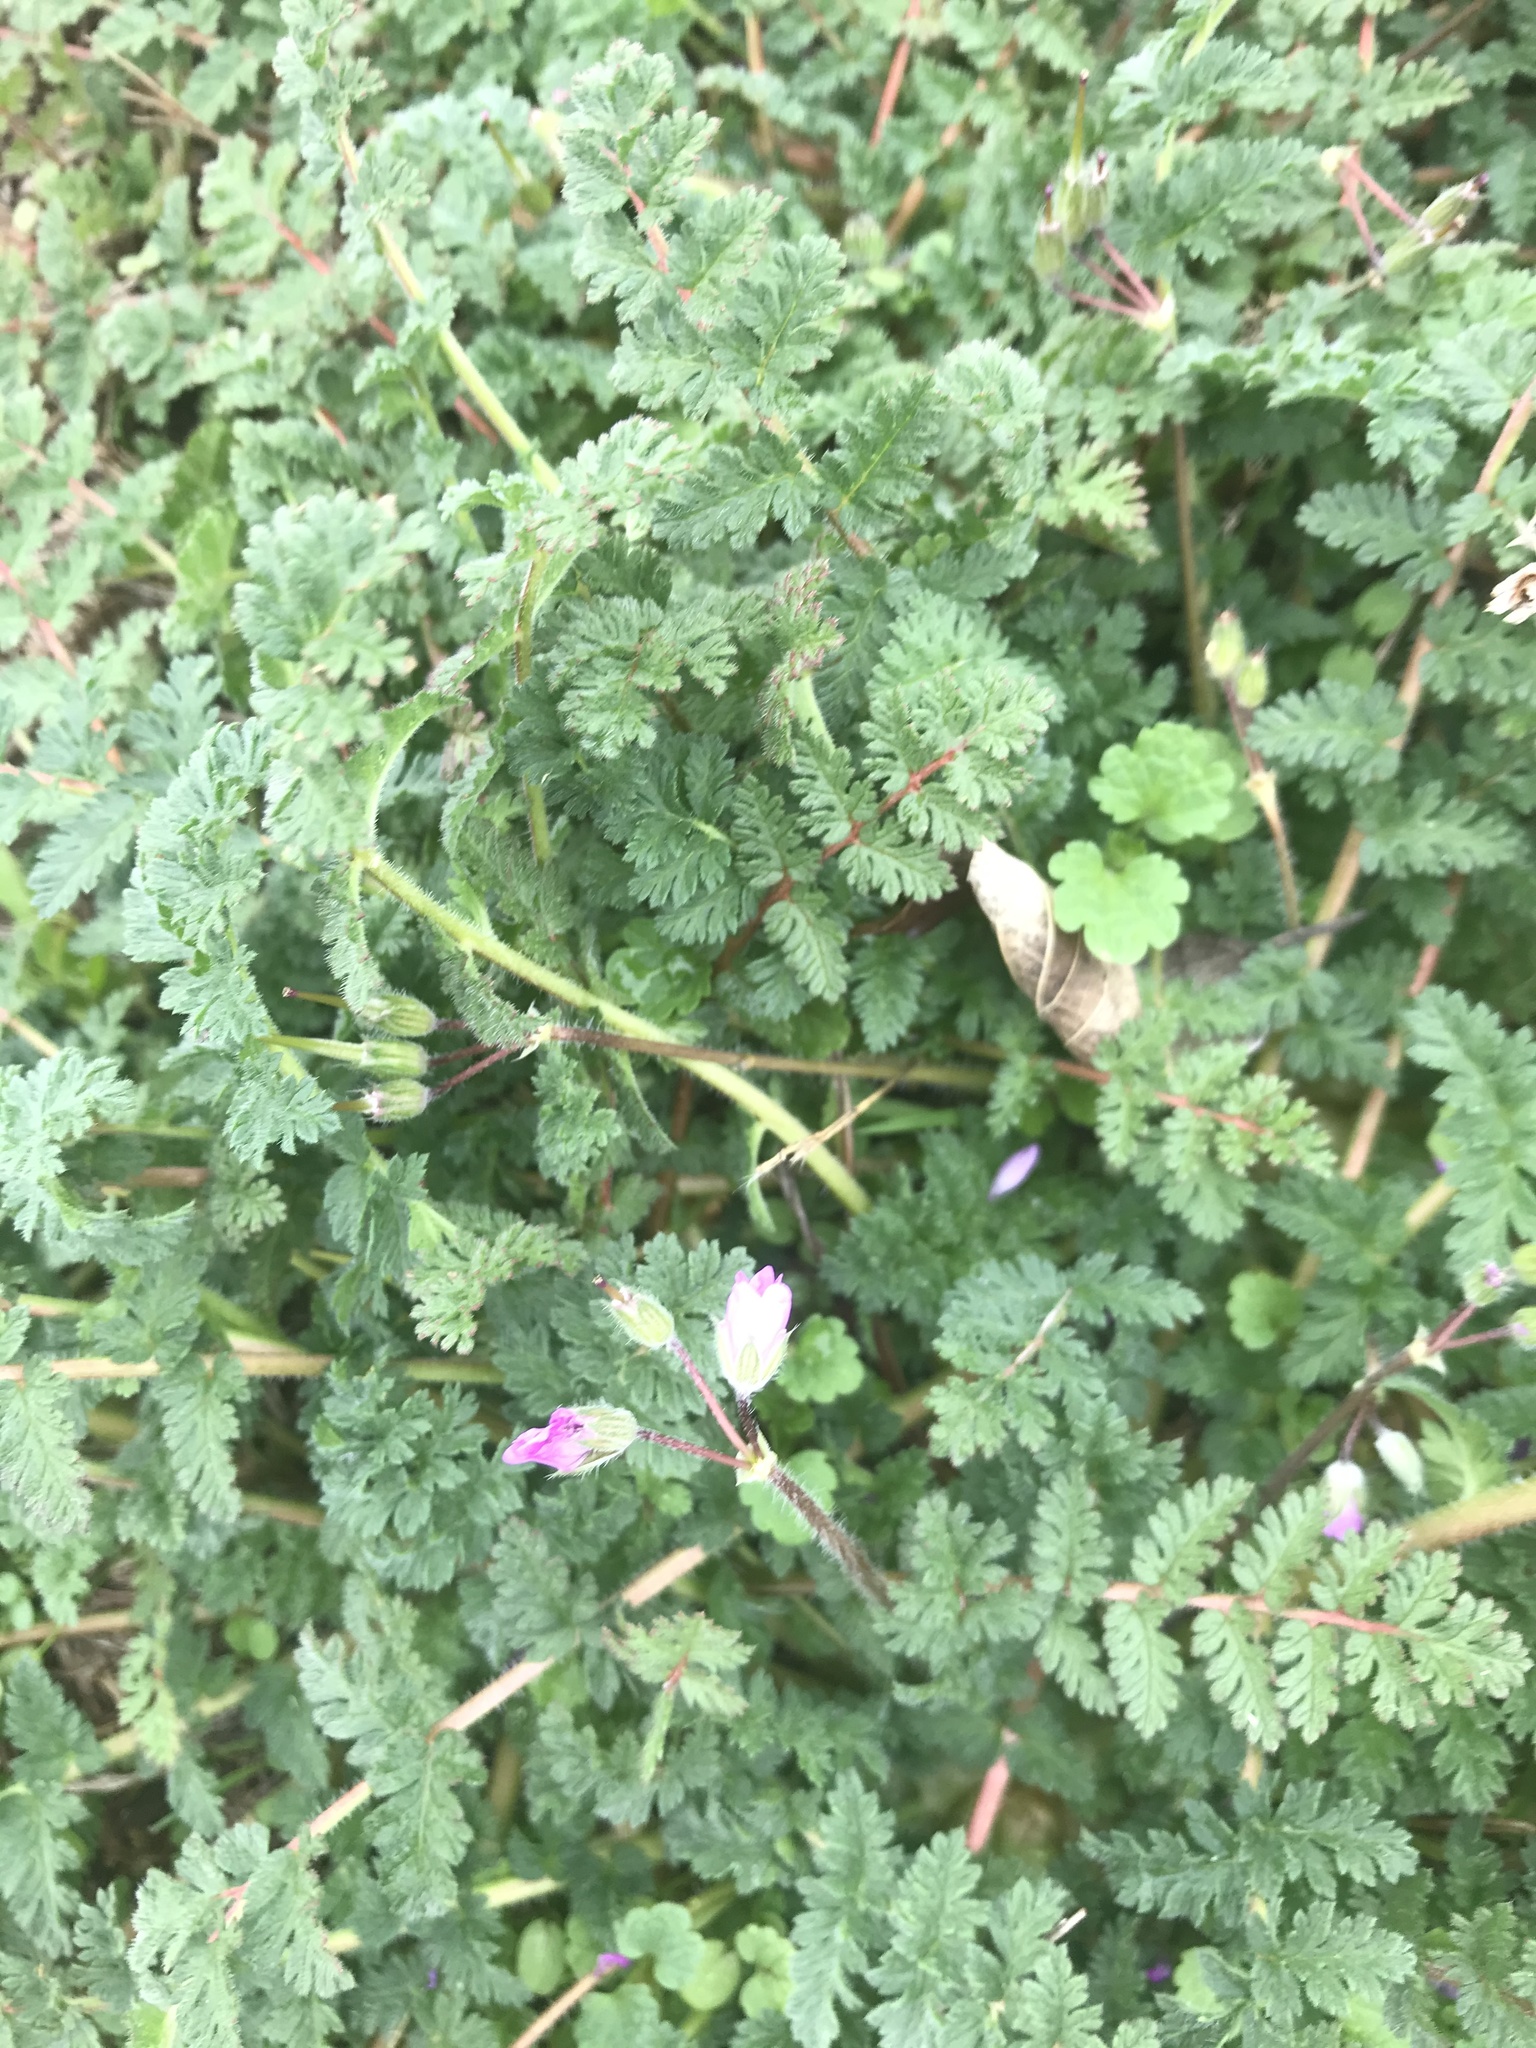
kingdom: Plantae
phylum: Tracheophyta
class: Magnoliopsida
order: Geraniales
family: Geraniaceae
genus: Erodium
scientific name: Erodium cicutarium
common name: Common stork's-bill
